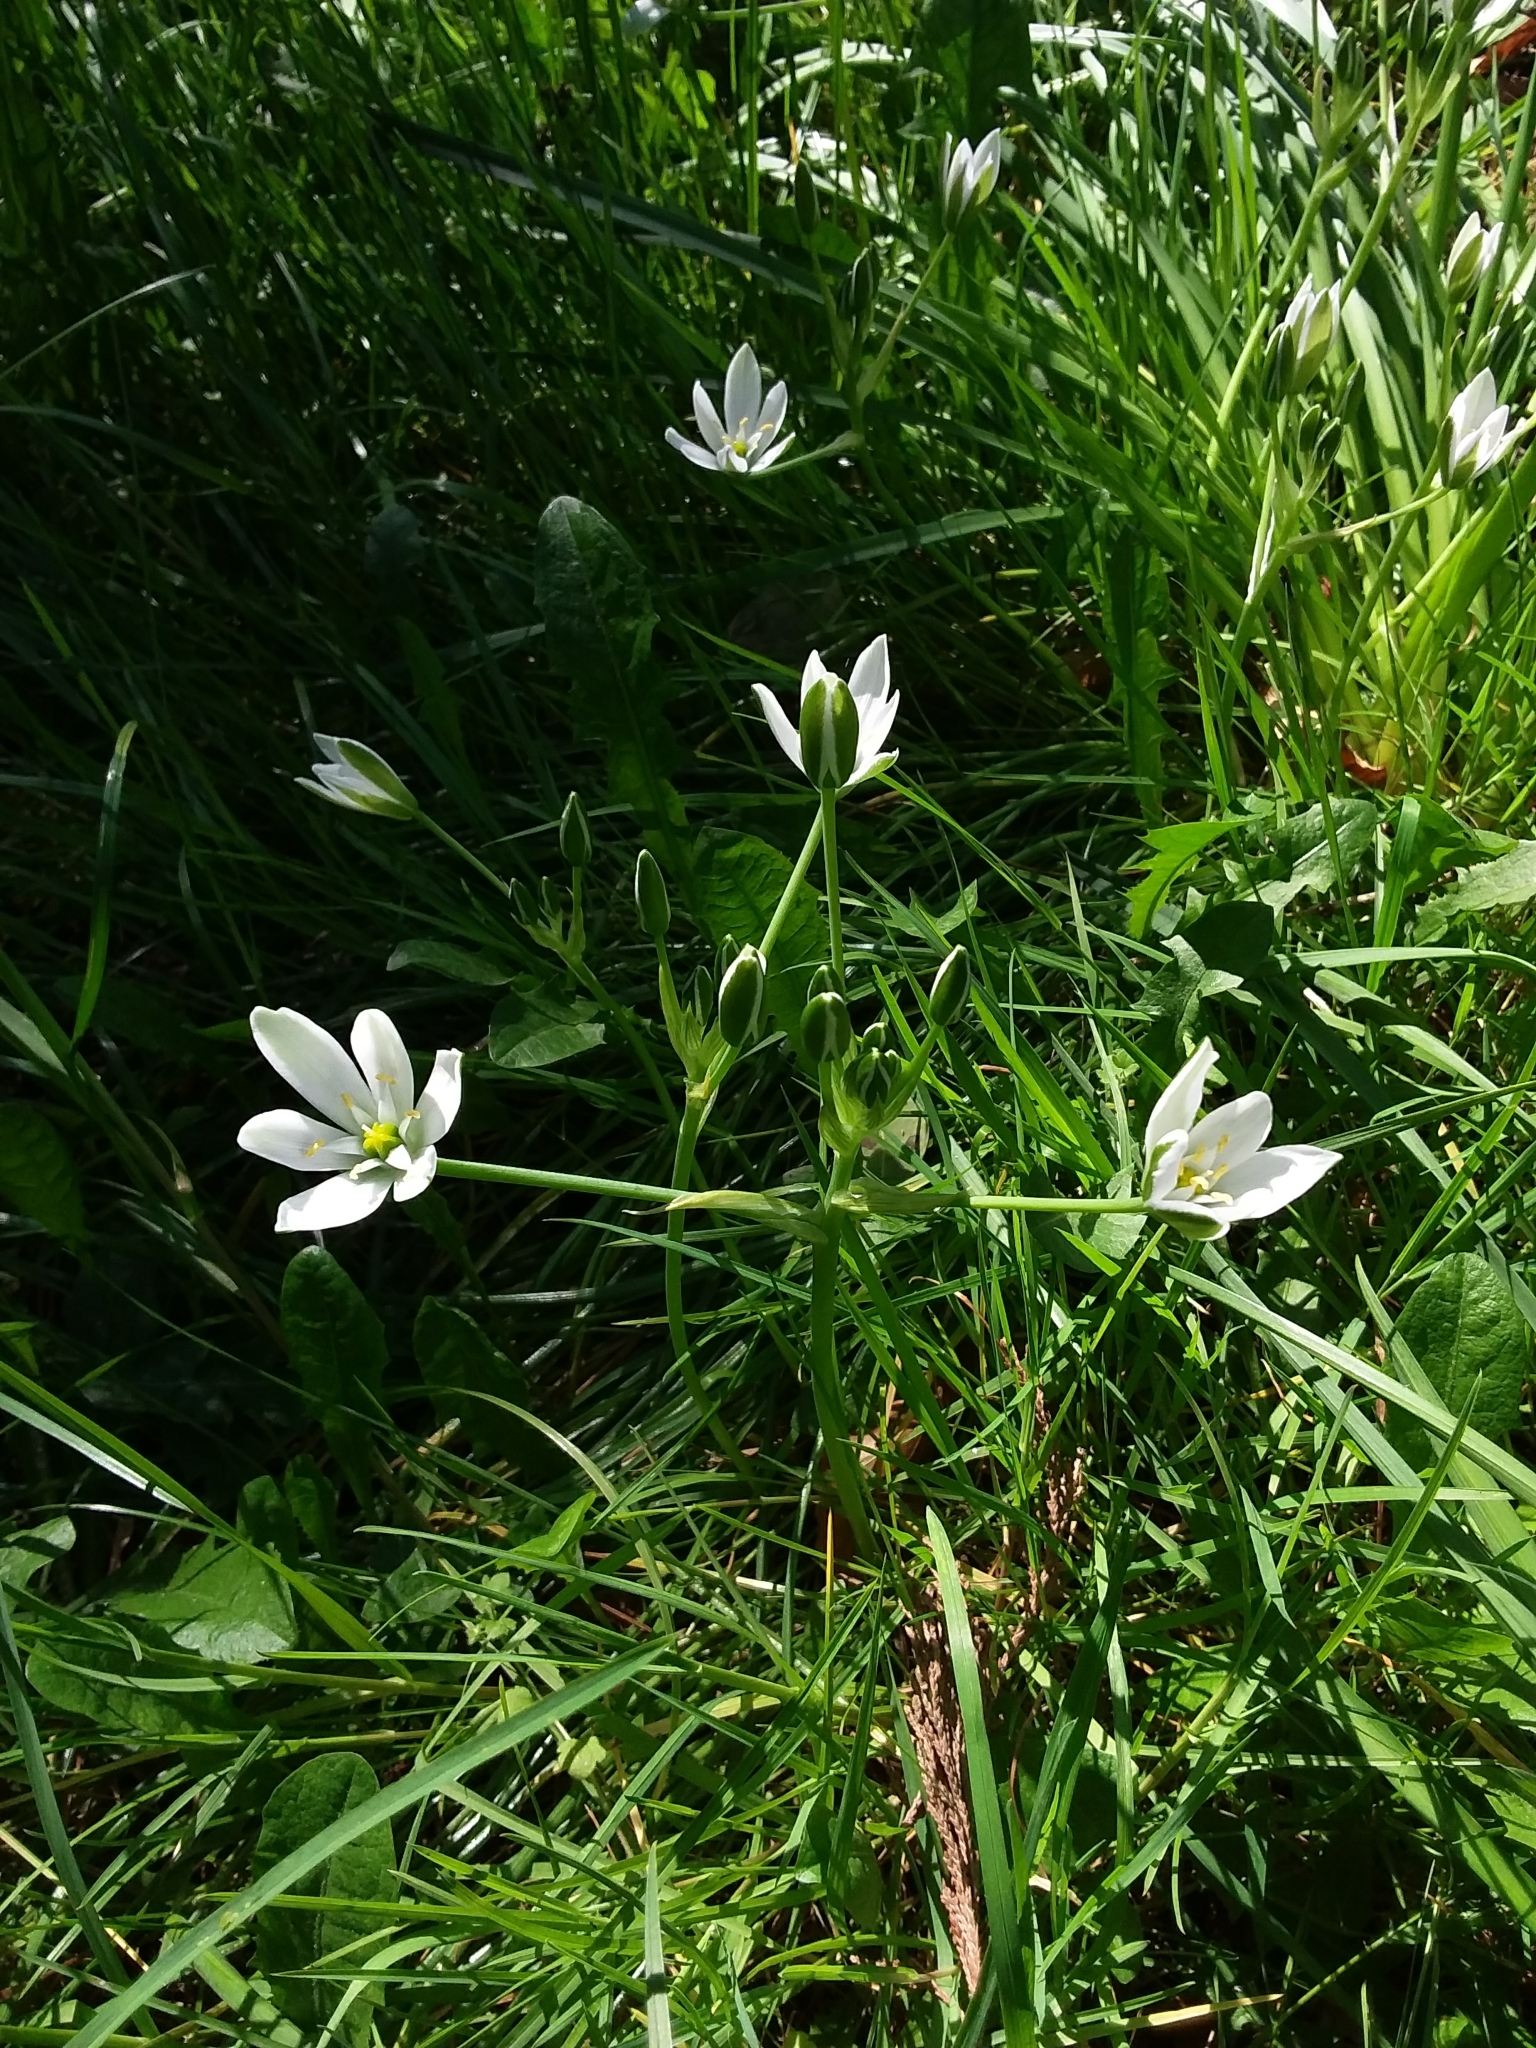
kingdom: Plantae
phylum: Tracheophyta
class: Liliopsida
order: Asparagales
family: Asparagaceae
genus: Ornithogalum
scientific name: Ornithogalum umbellatum
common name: Garden star-of-bethlehem
